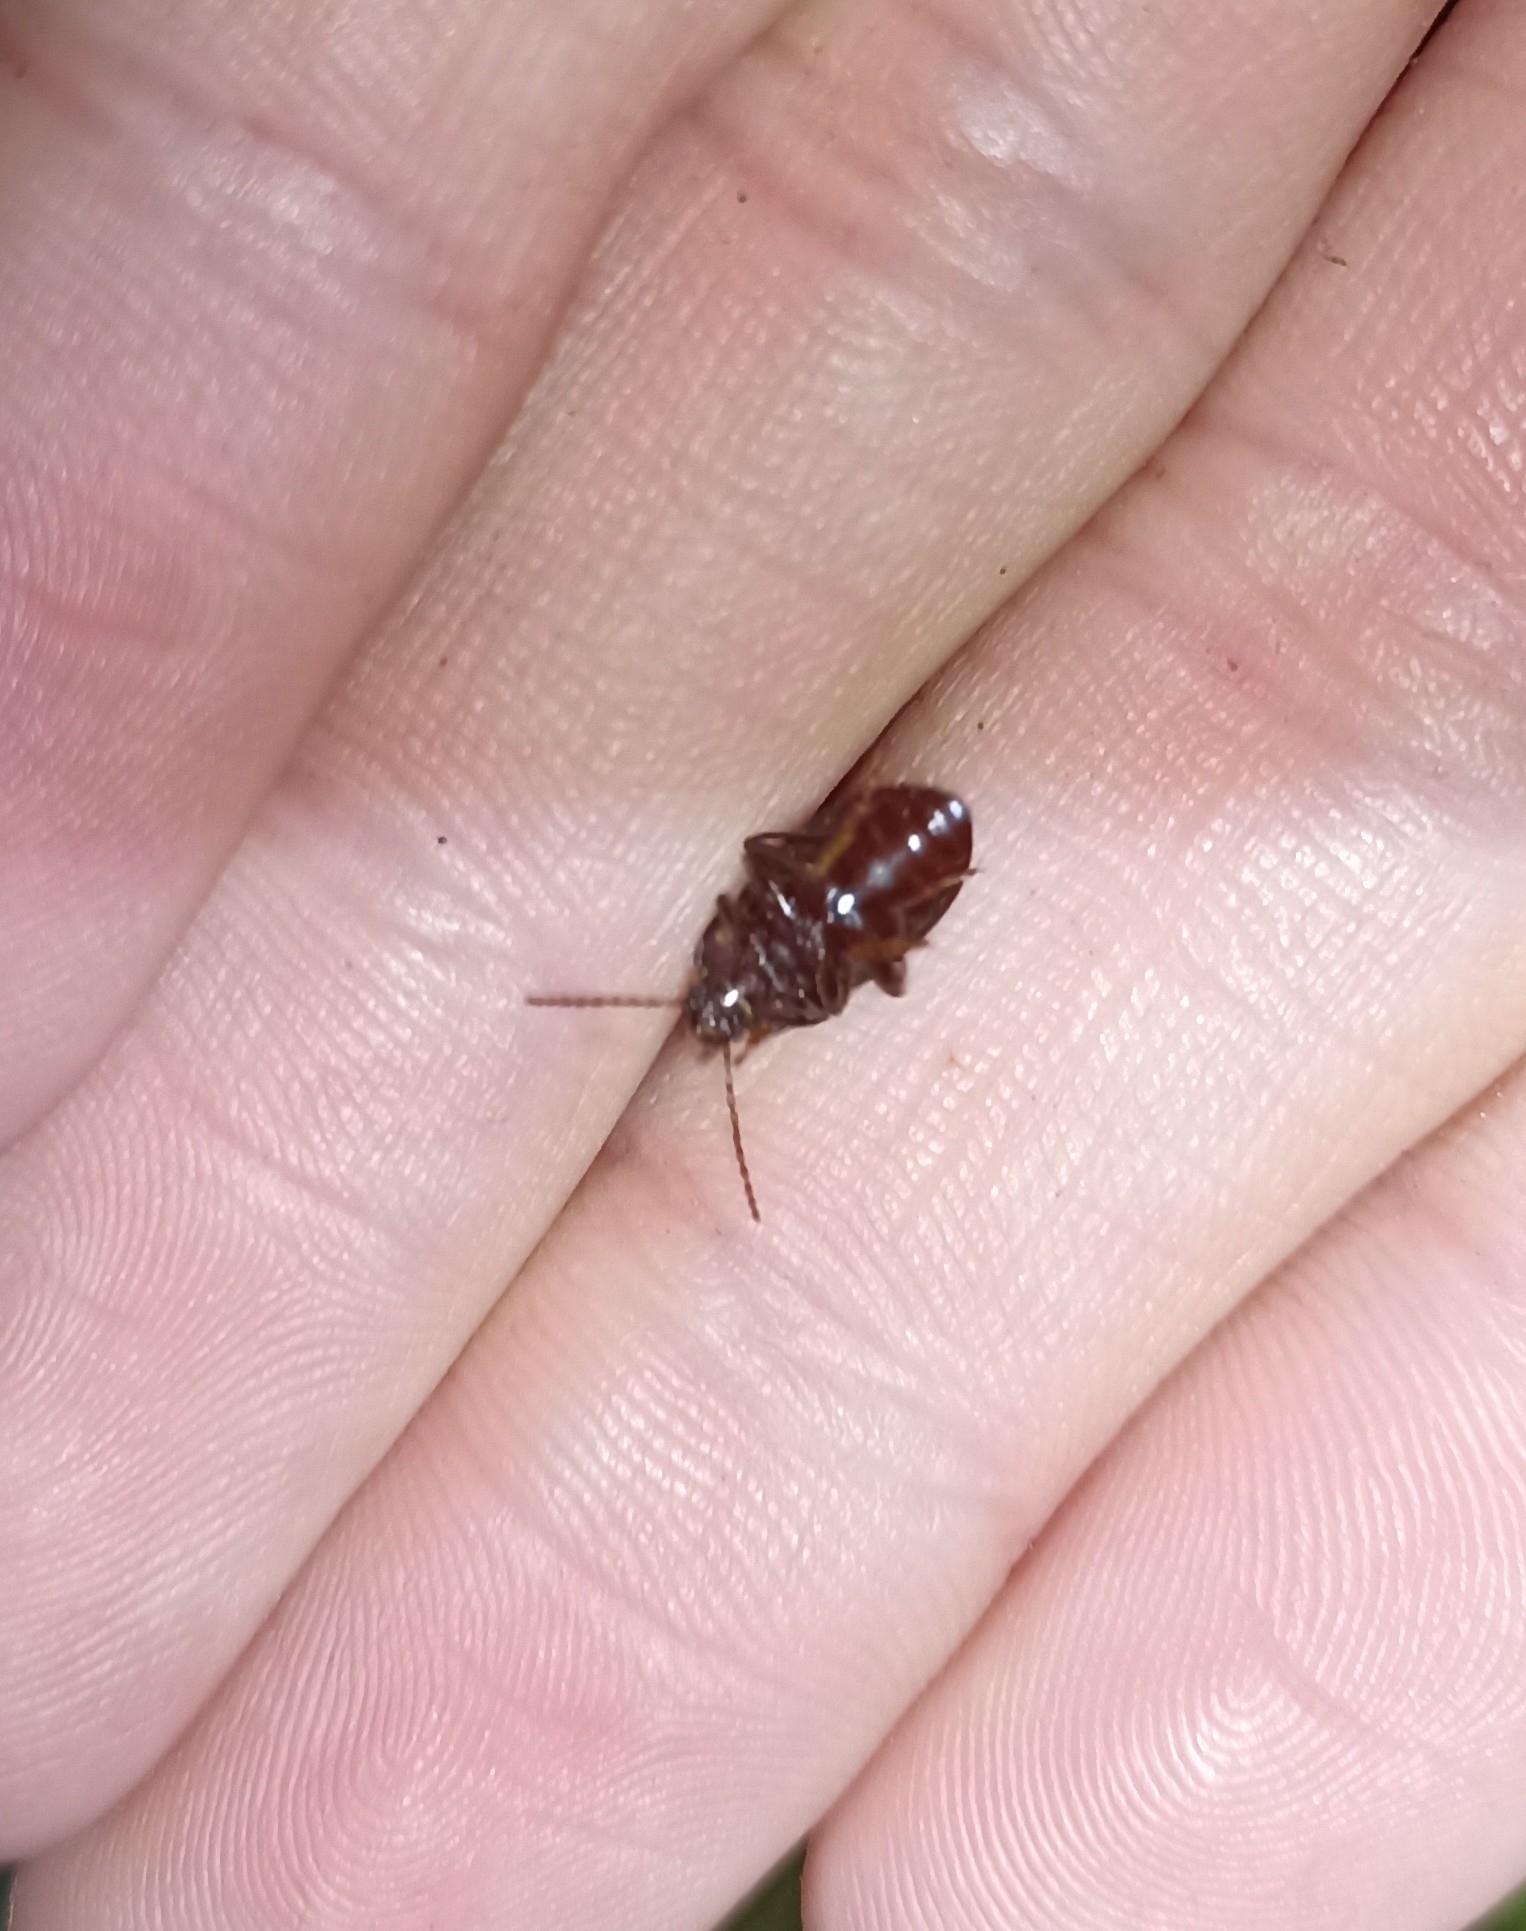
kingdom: Animalia
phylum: Arthropoda
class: Insecta
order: Coleoptera
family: Tenebrionidae
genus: Nalassus
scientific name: Nalassus laevioctostriatus
